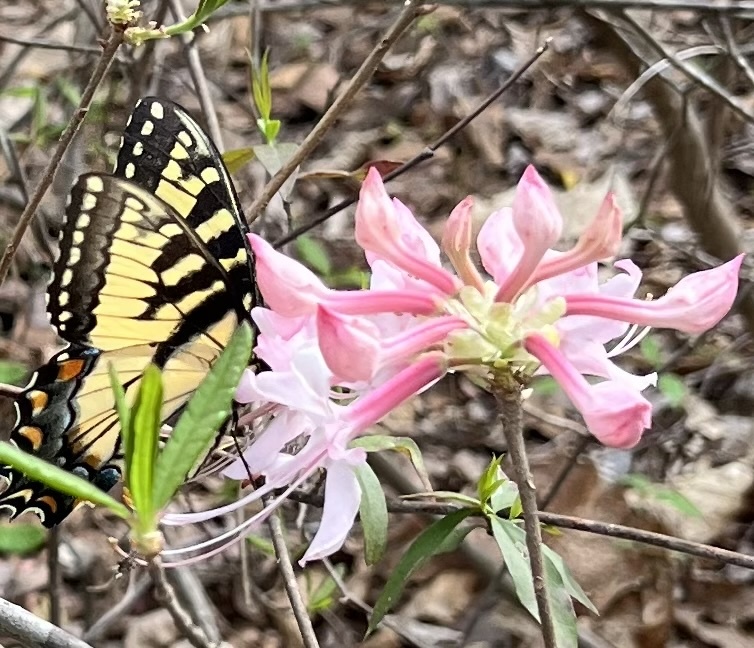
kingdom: Animalia
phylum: Arthropoda
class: Insecta
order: Lepidoptera
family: Papilionidae
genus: Papilio
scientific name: Papilio glaucus
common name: Tiger swallowtail
